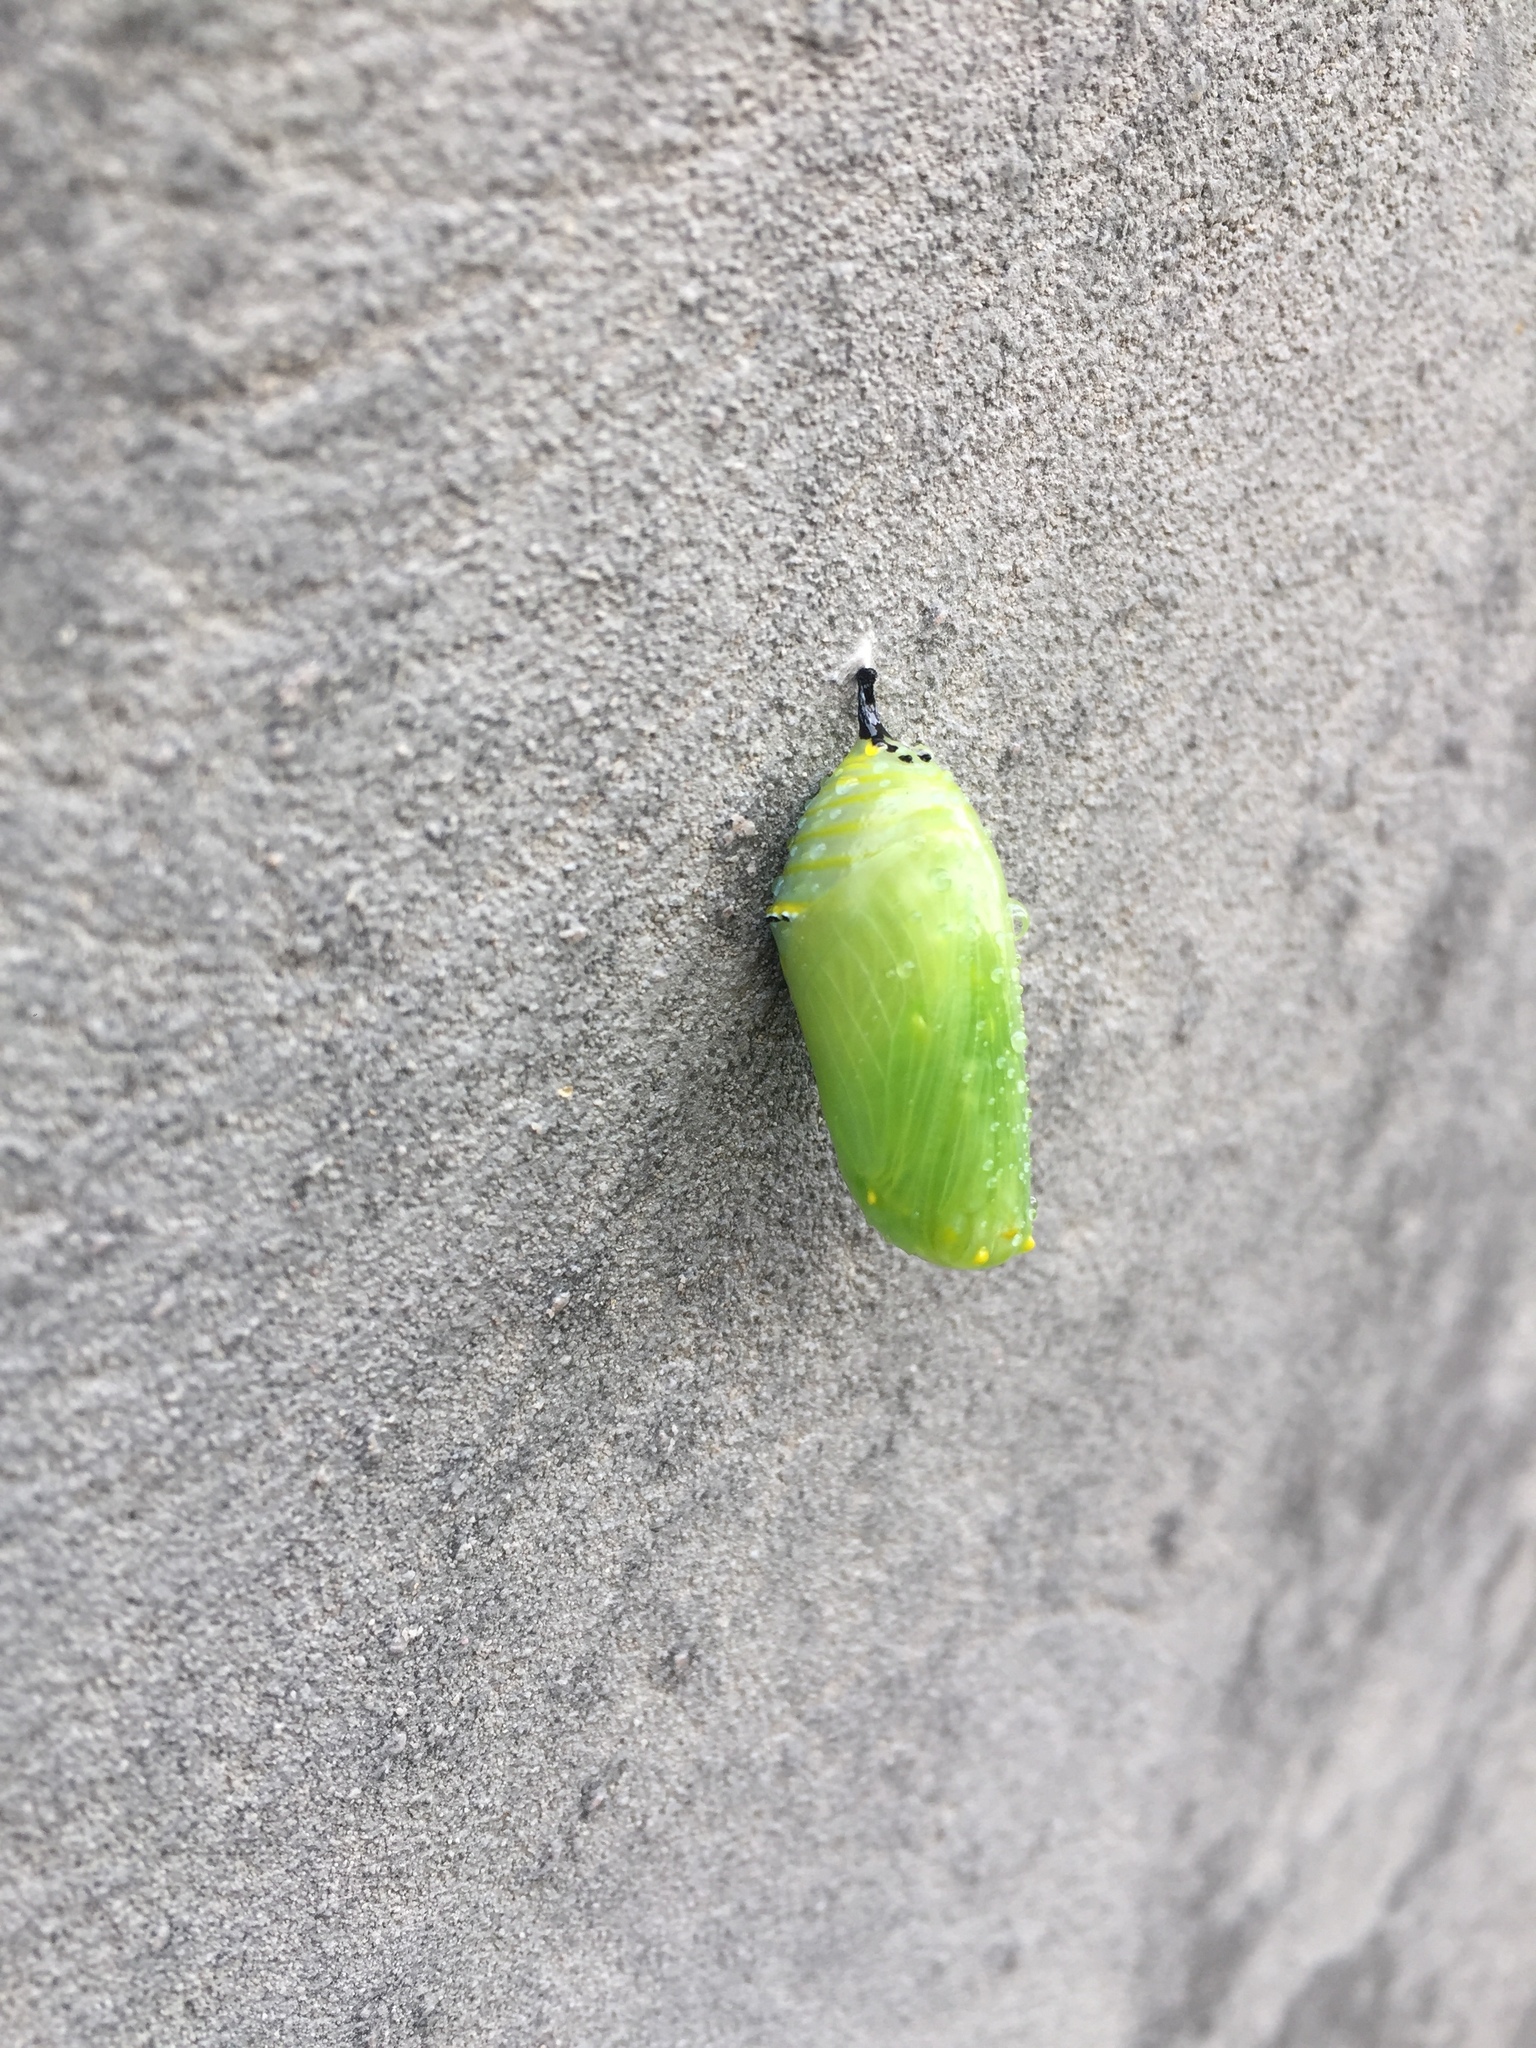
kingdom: Animalia
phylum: Arthropoda
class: Insecta
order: Lepidoptera
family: Nymphalidae
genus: Danaus
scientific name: Danaus plexippus
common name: Monarch
